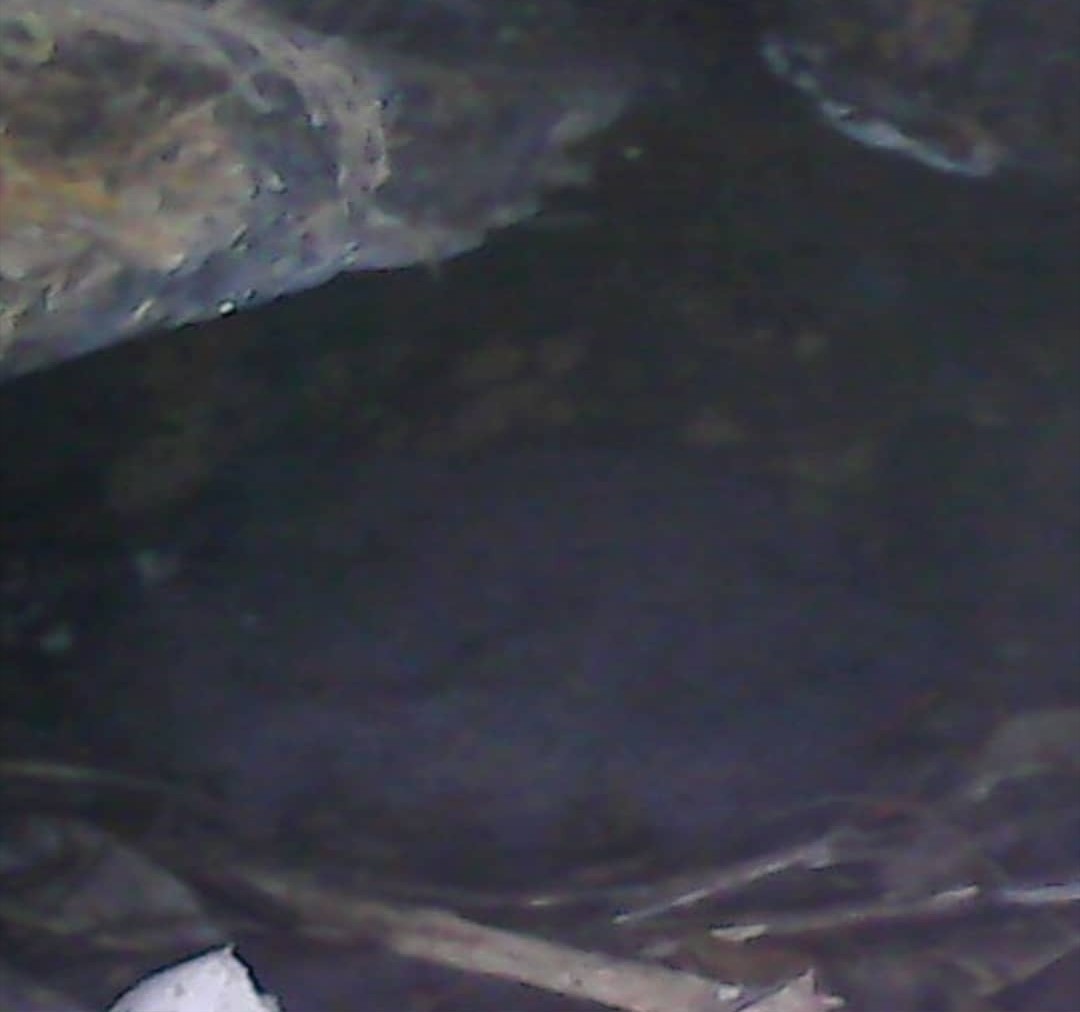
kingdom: Animalia
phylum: Chordata
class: Aves
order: Procellariiformes
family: Procellariidae
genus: Pterodroma
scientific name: Pterodroma macroptera
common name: Great-winged petrel
